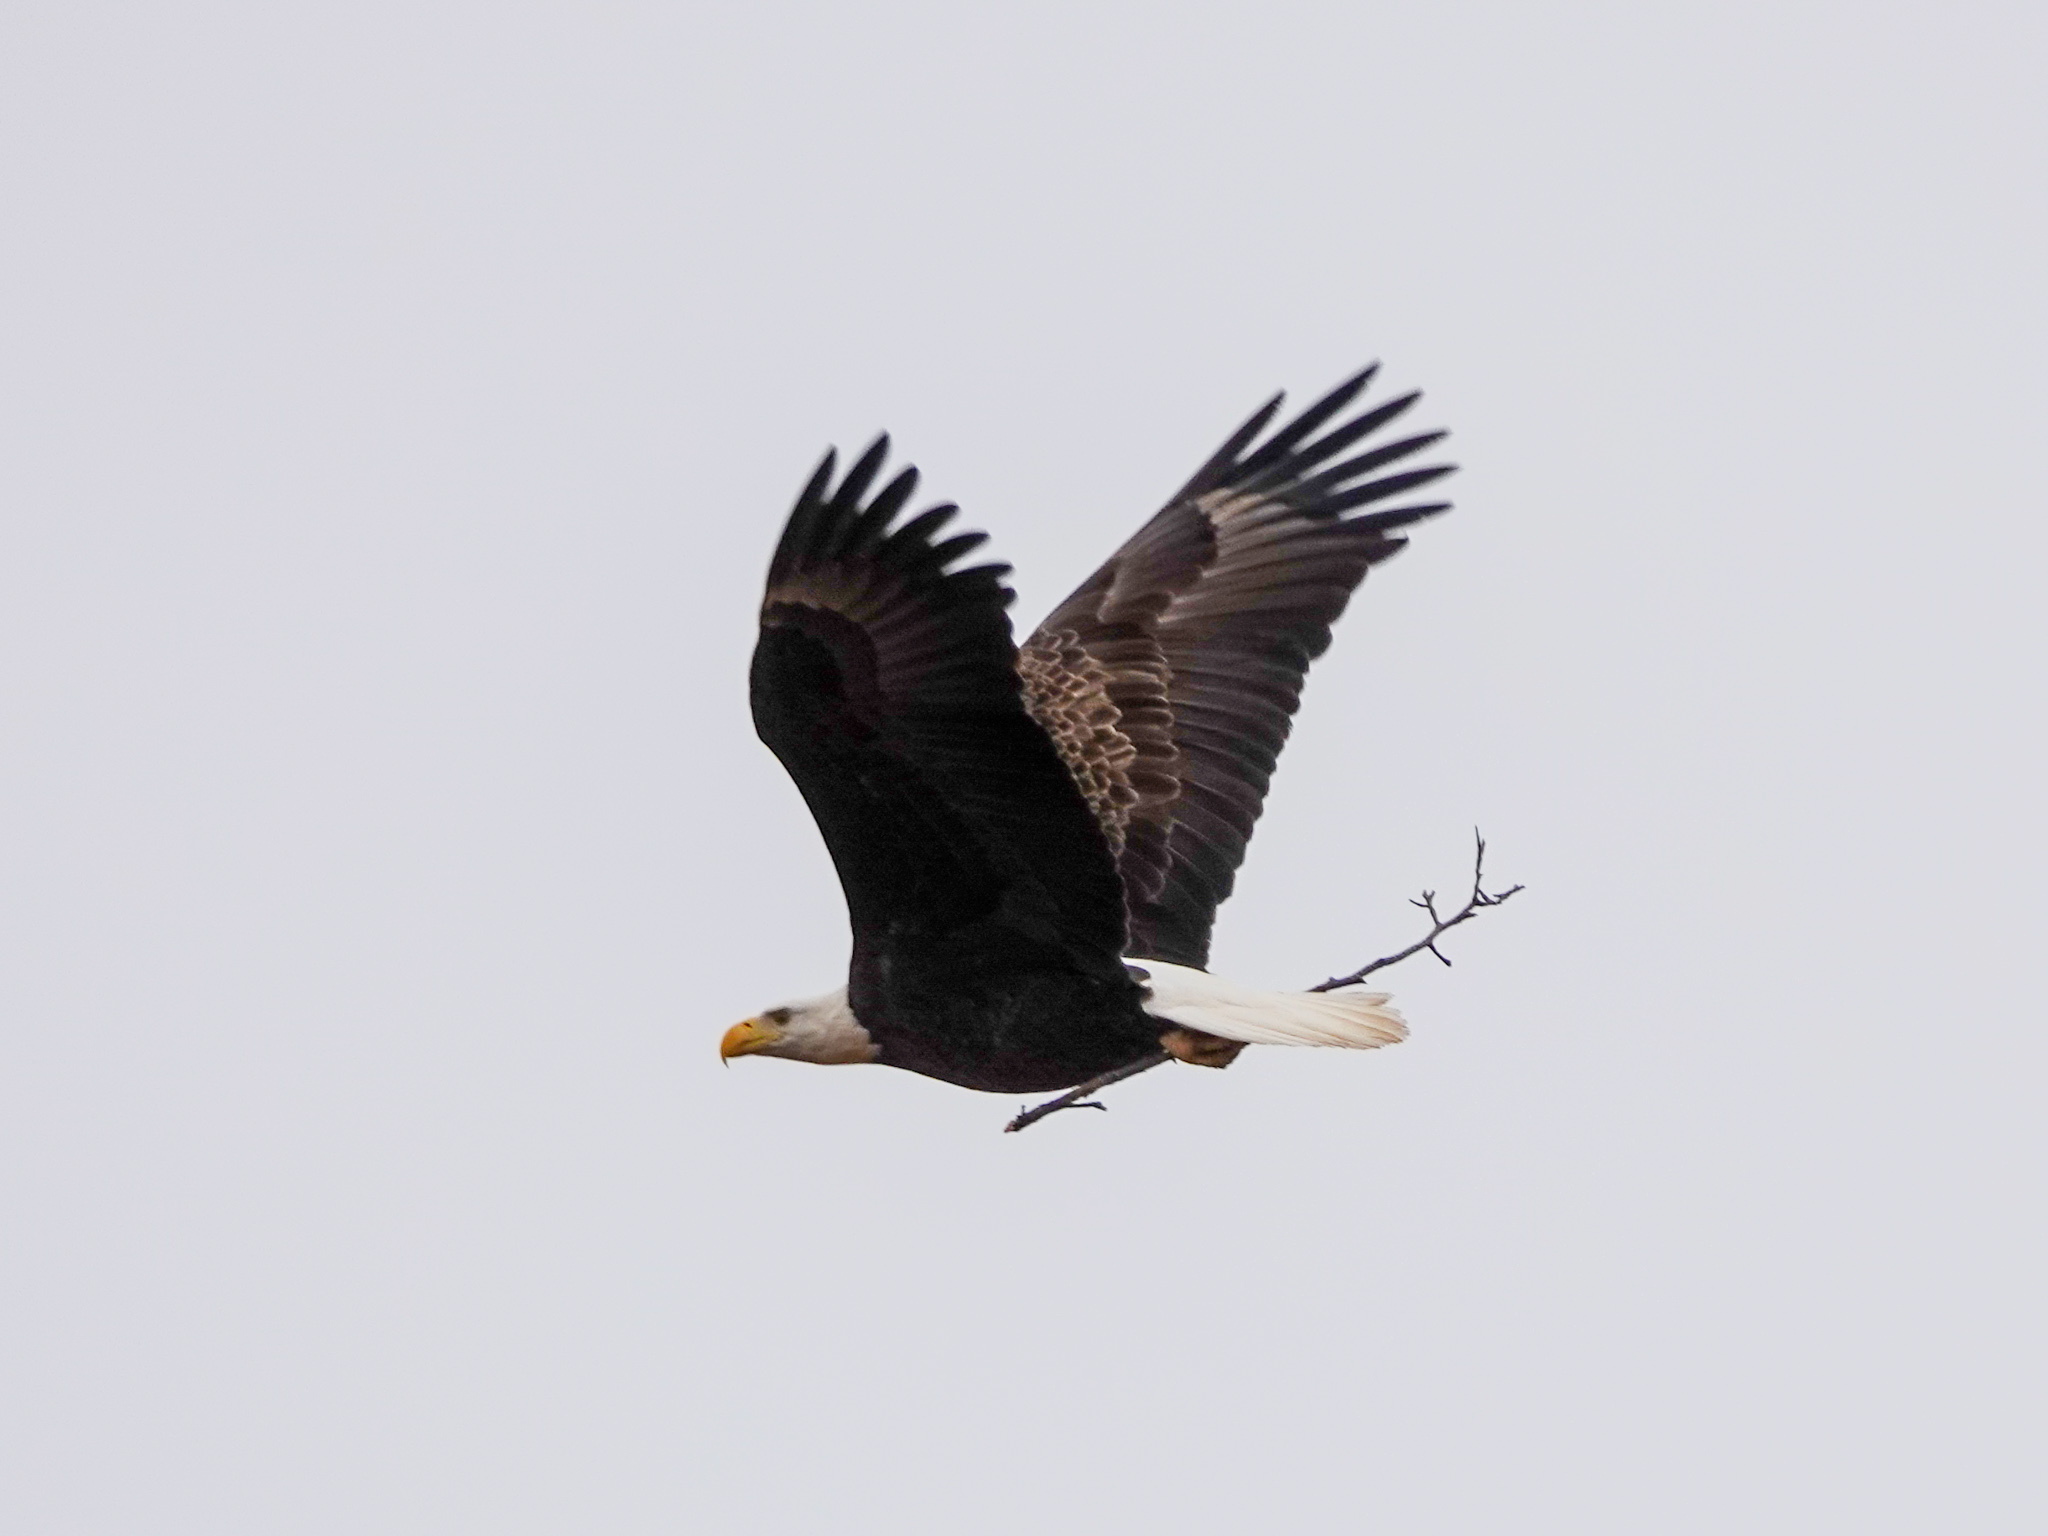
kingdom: Animalia
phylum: Chordata
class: Aves
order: Accipitriformes
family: Accipitridae
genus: Haliaeetus
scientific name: Haliaeetus leucocephalus
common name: Bald eagle
